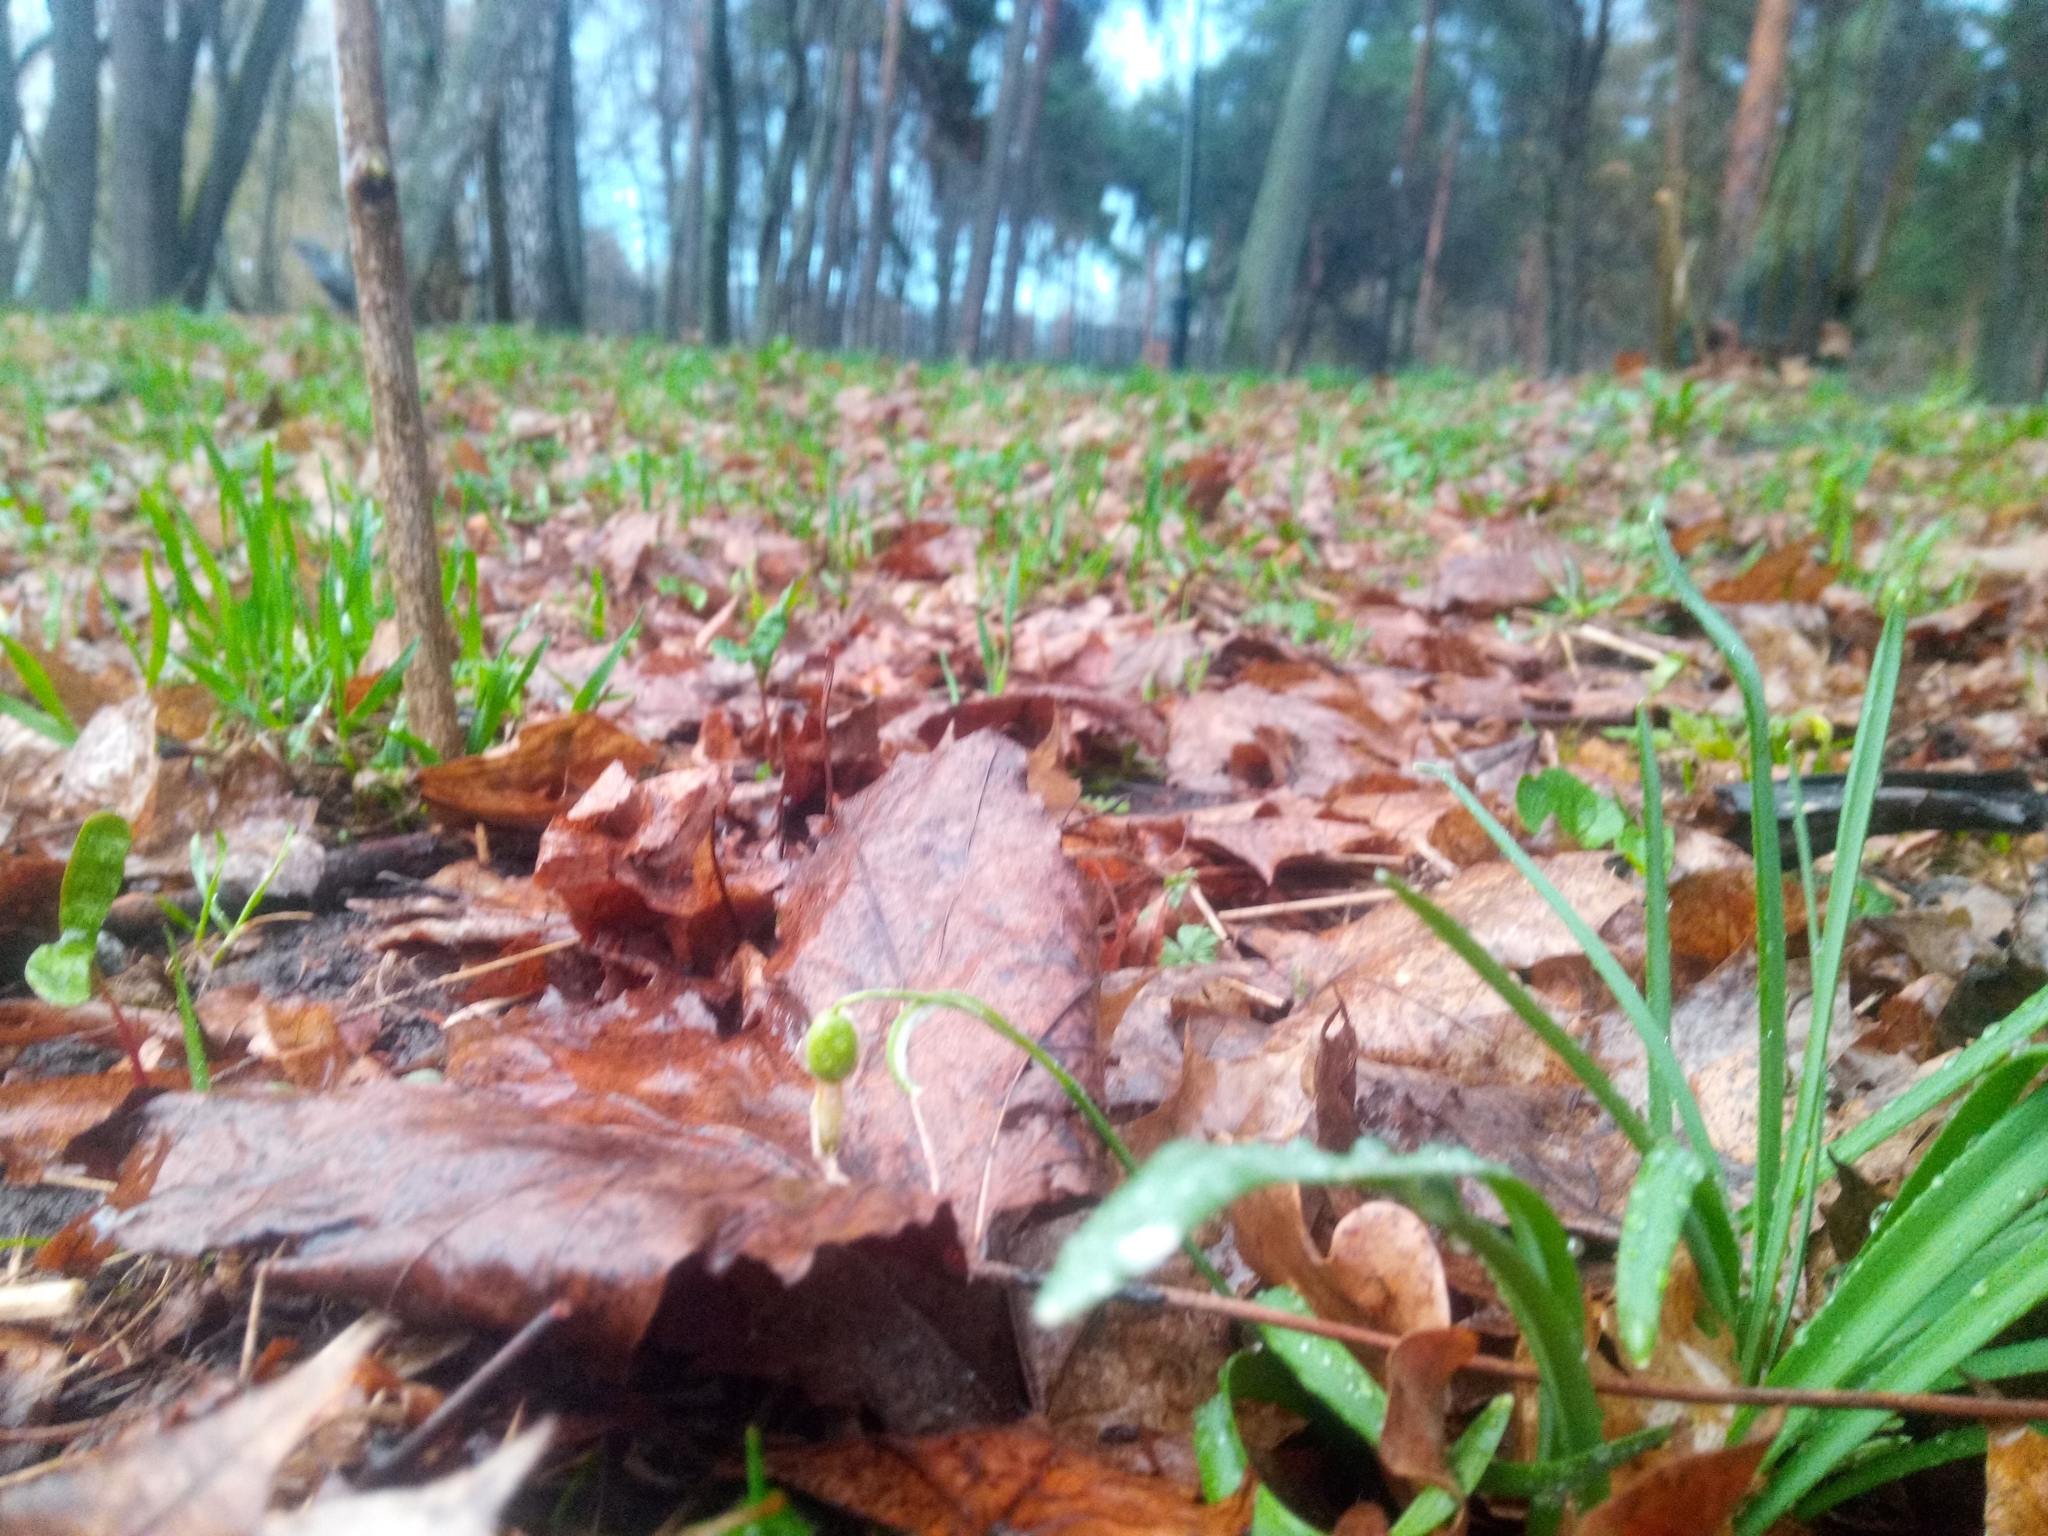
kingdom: Plantae
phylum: Tracheophyta
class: Liliopsida
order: Asparagales
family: Amaryllidaceae
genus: Galanthus
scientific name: Galanthus nivalis
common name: Snowdrop
